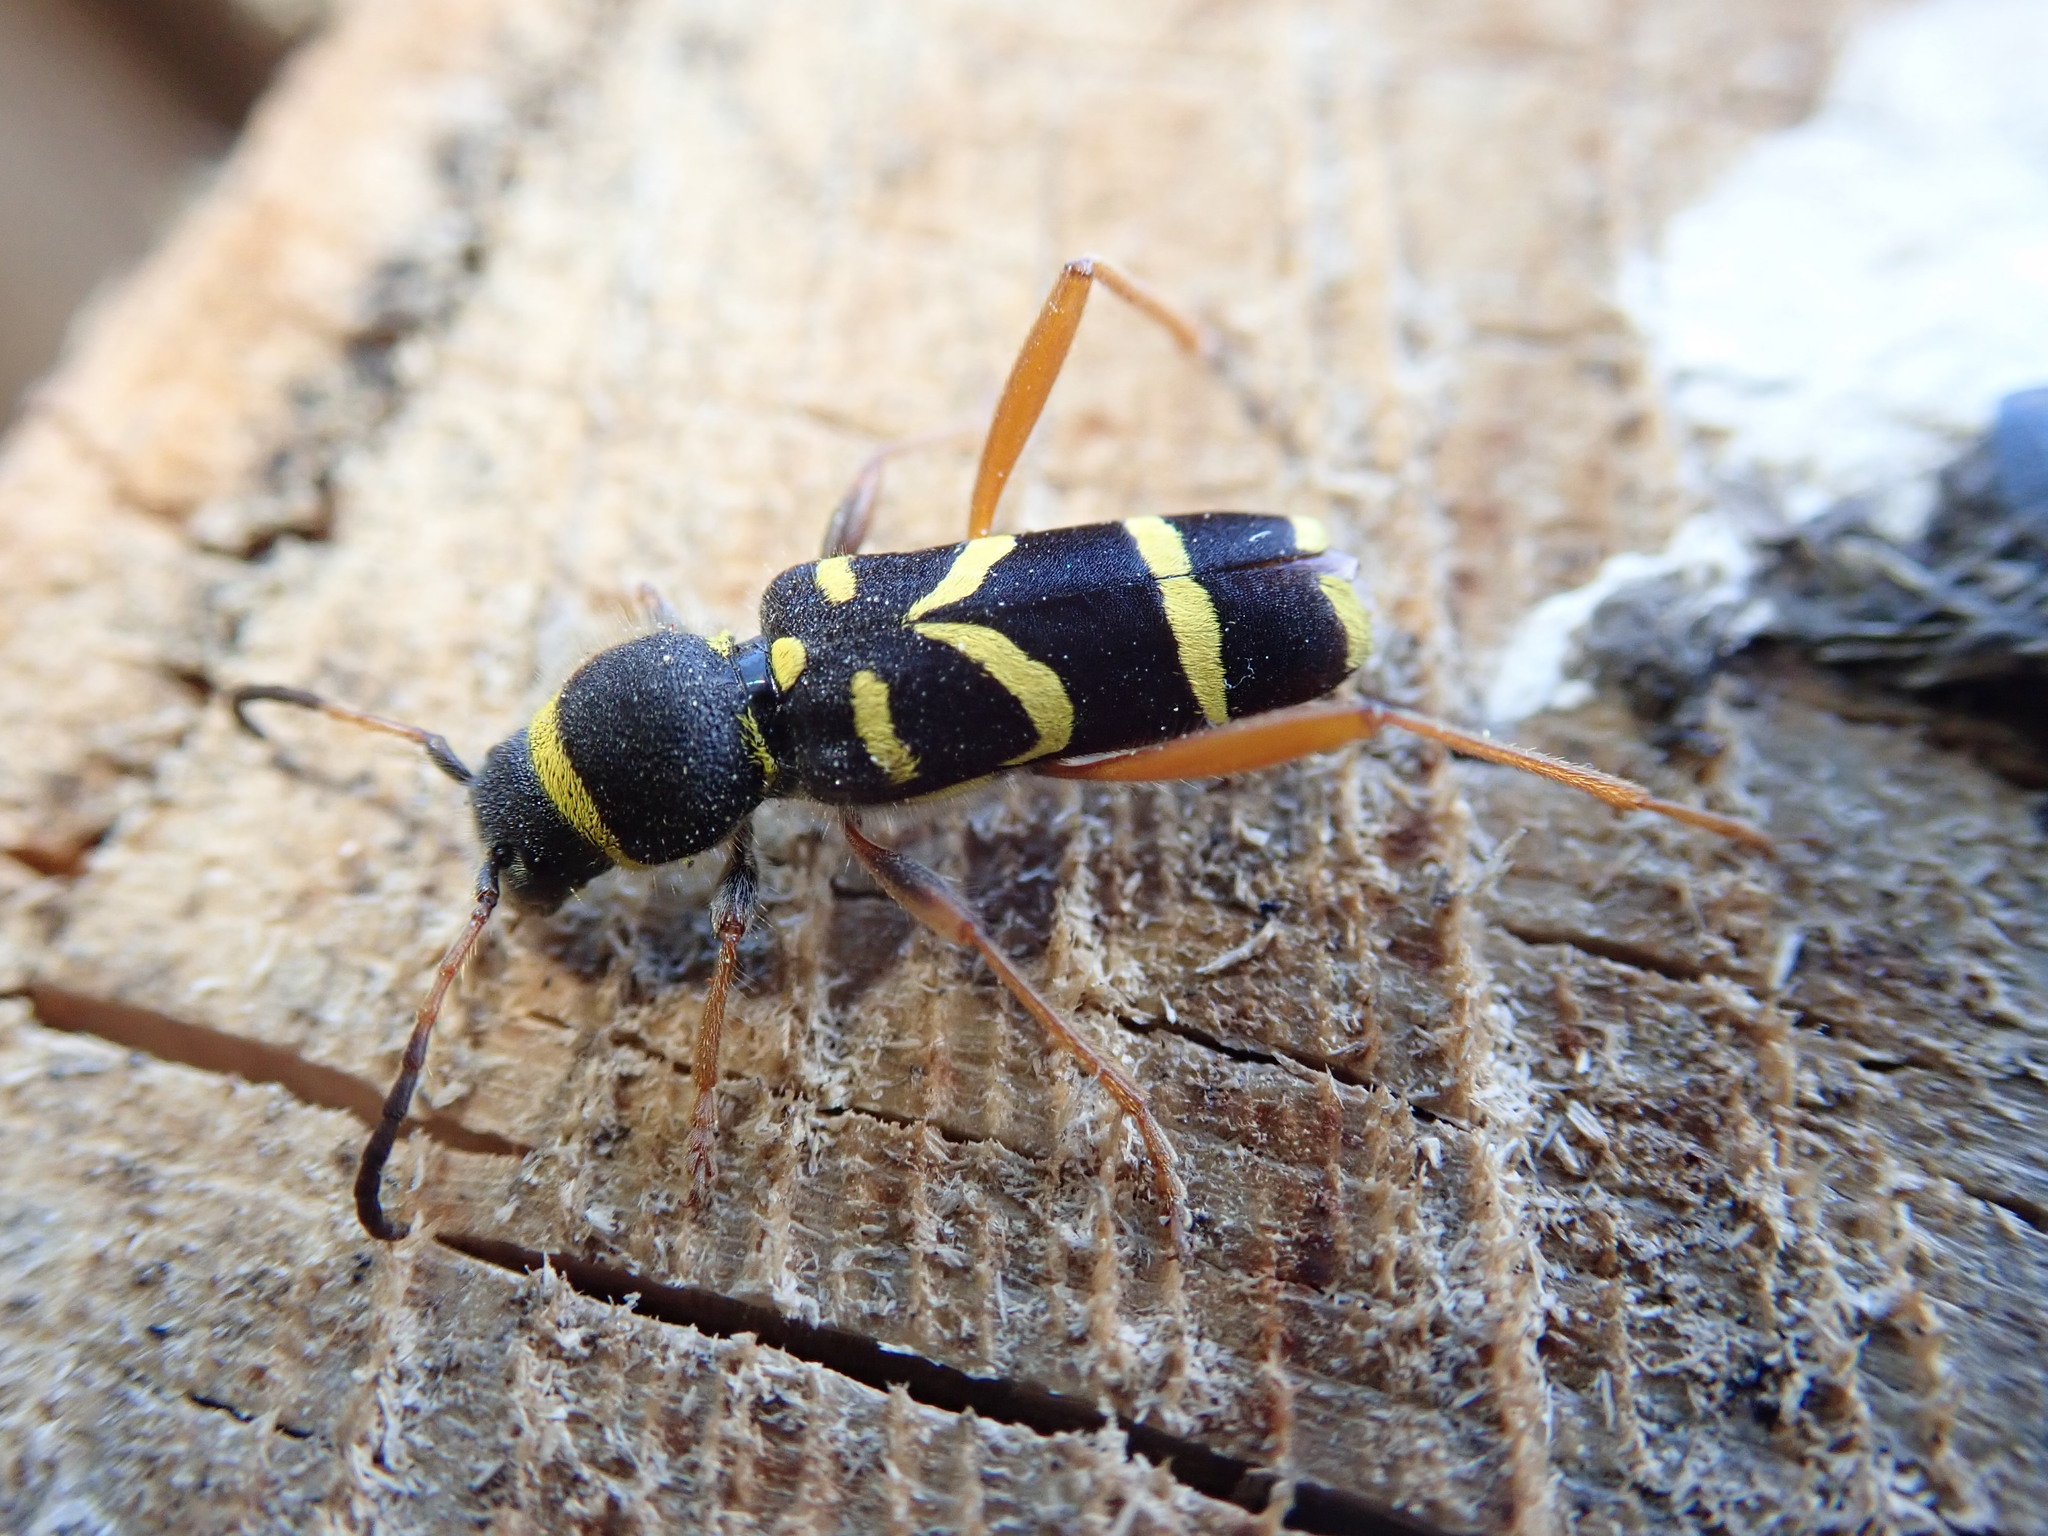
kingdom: Animalia
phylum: Arthropoda
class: Insecta
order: Coleoptera
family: Cerambycidae
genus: Clytus
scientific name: Clytus arietis
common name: Wasp beetle
